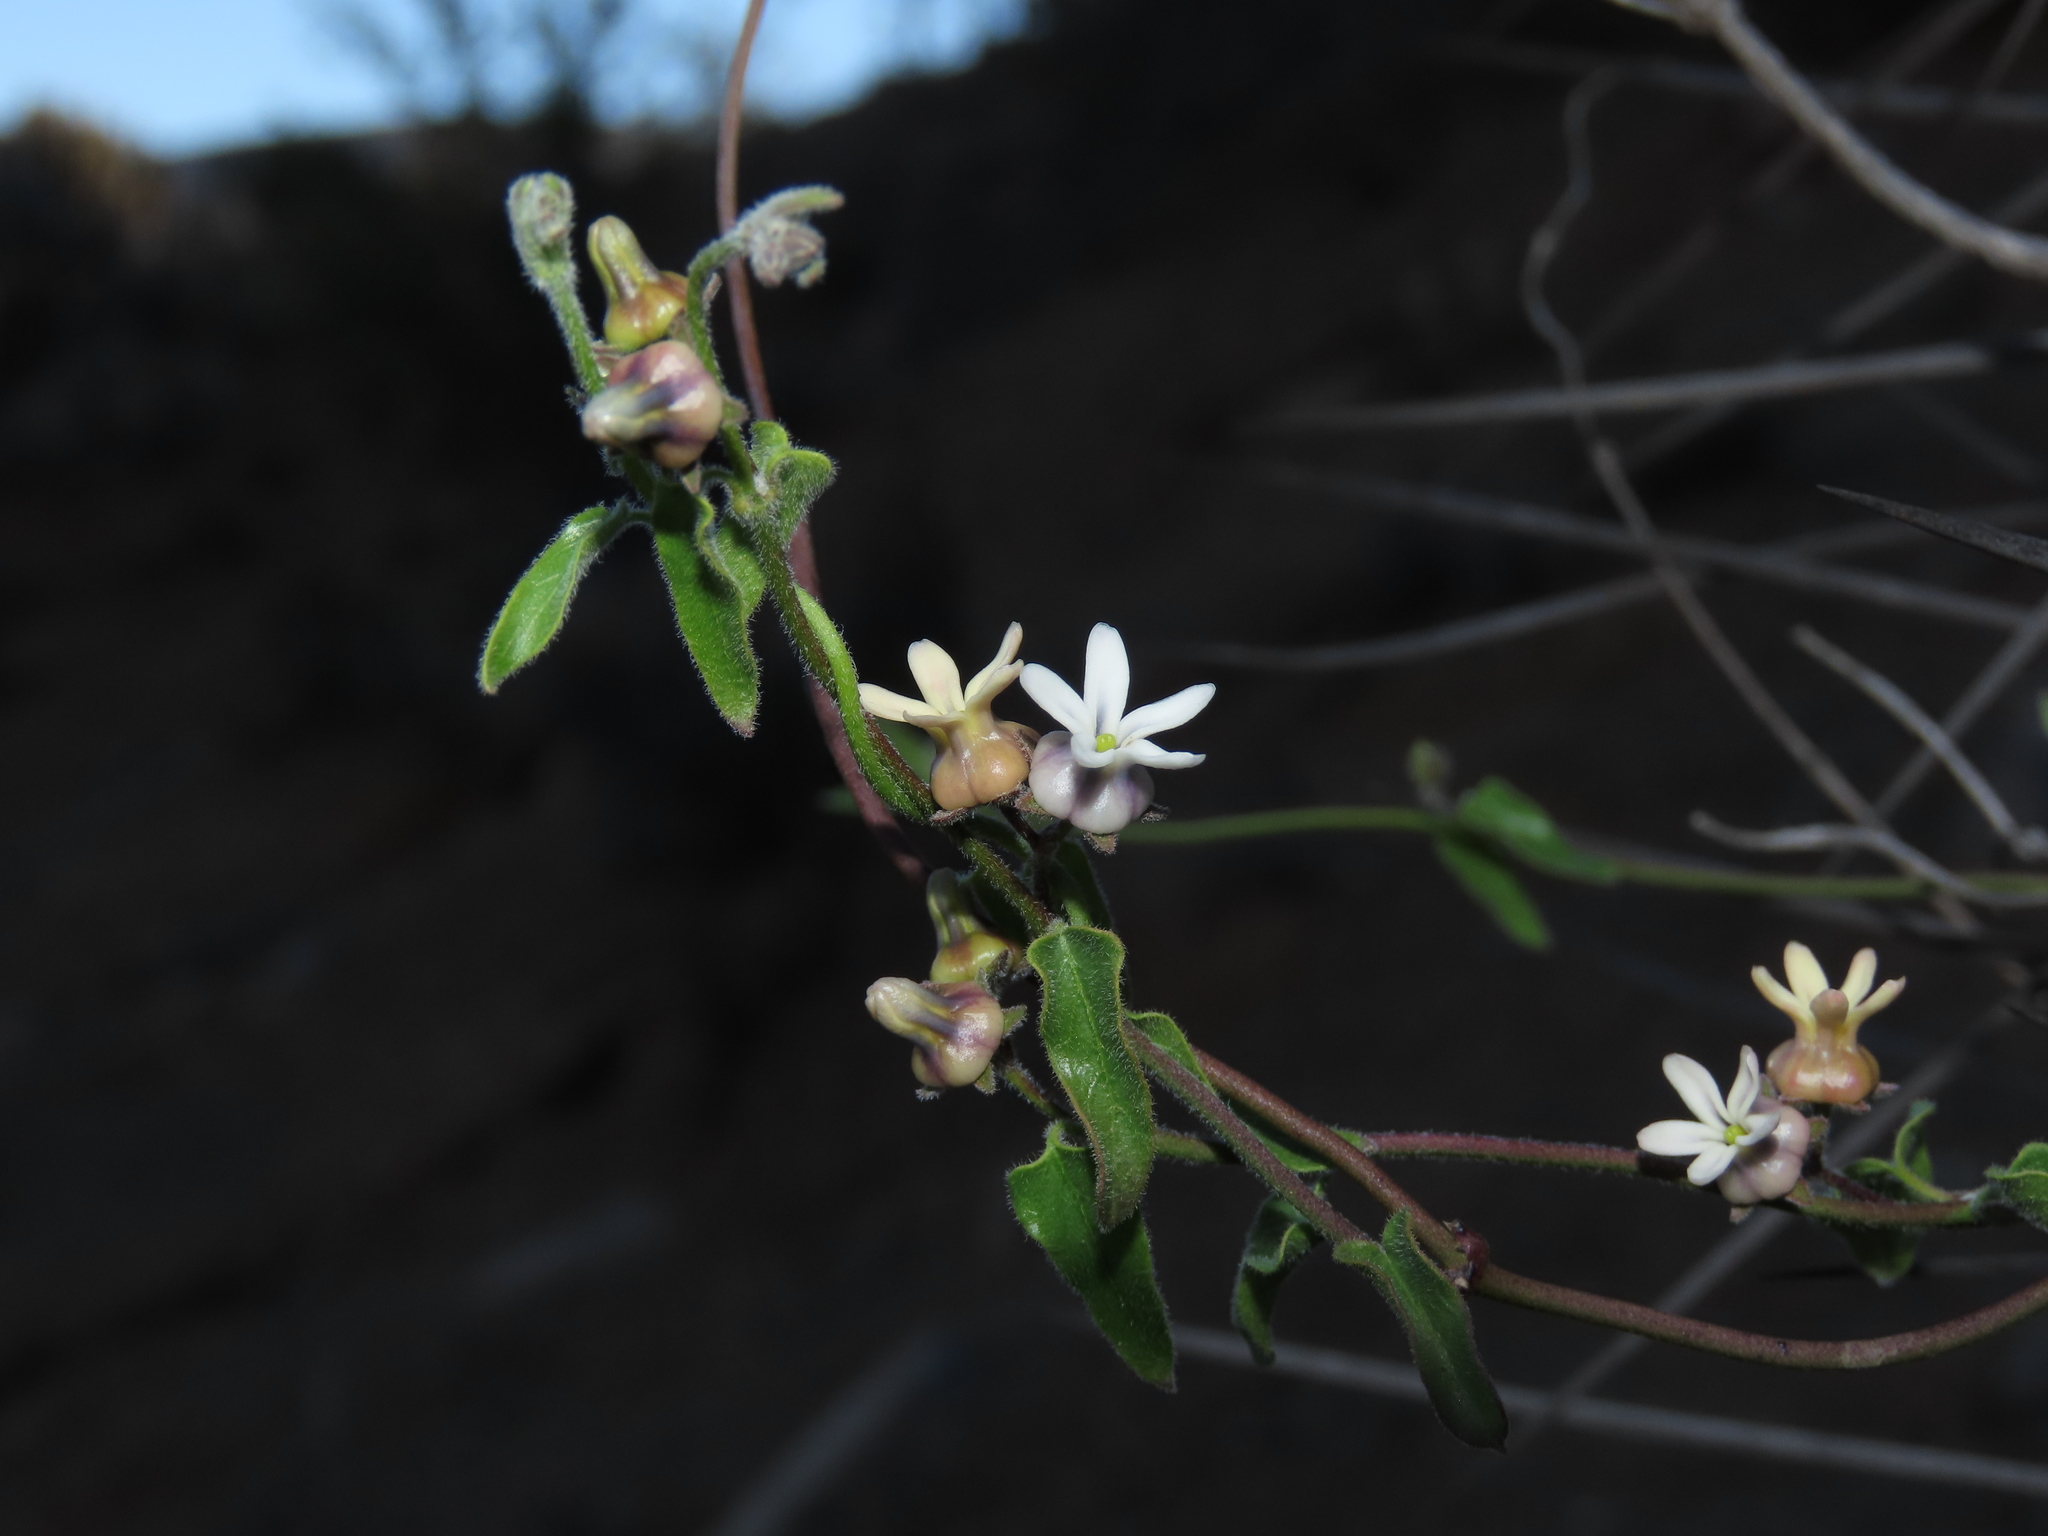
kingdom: Plantae
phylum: Tracheophyta
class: Magnoliopsida
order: Gentianales
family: Apocynaceae
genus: Diplolepis
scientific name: Diplolepis geminiflora
